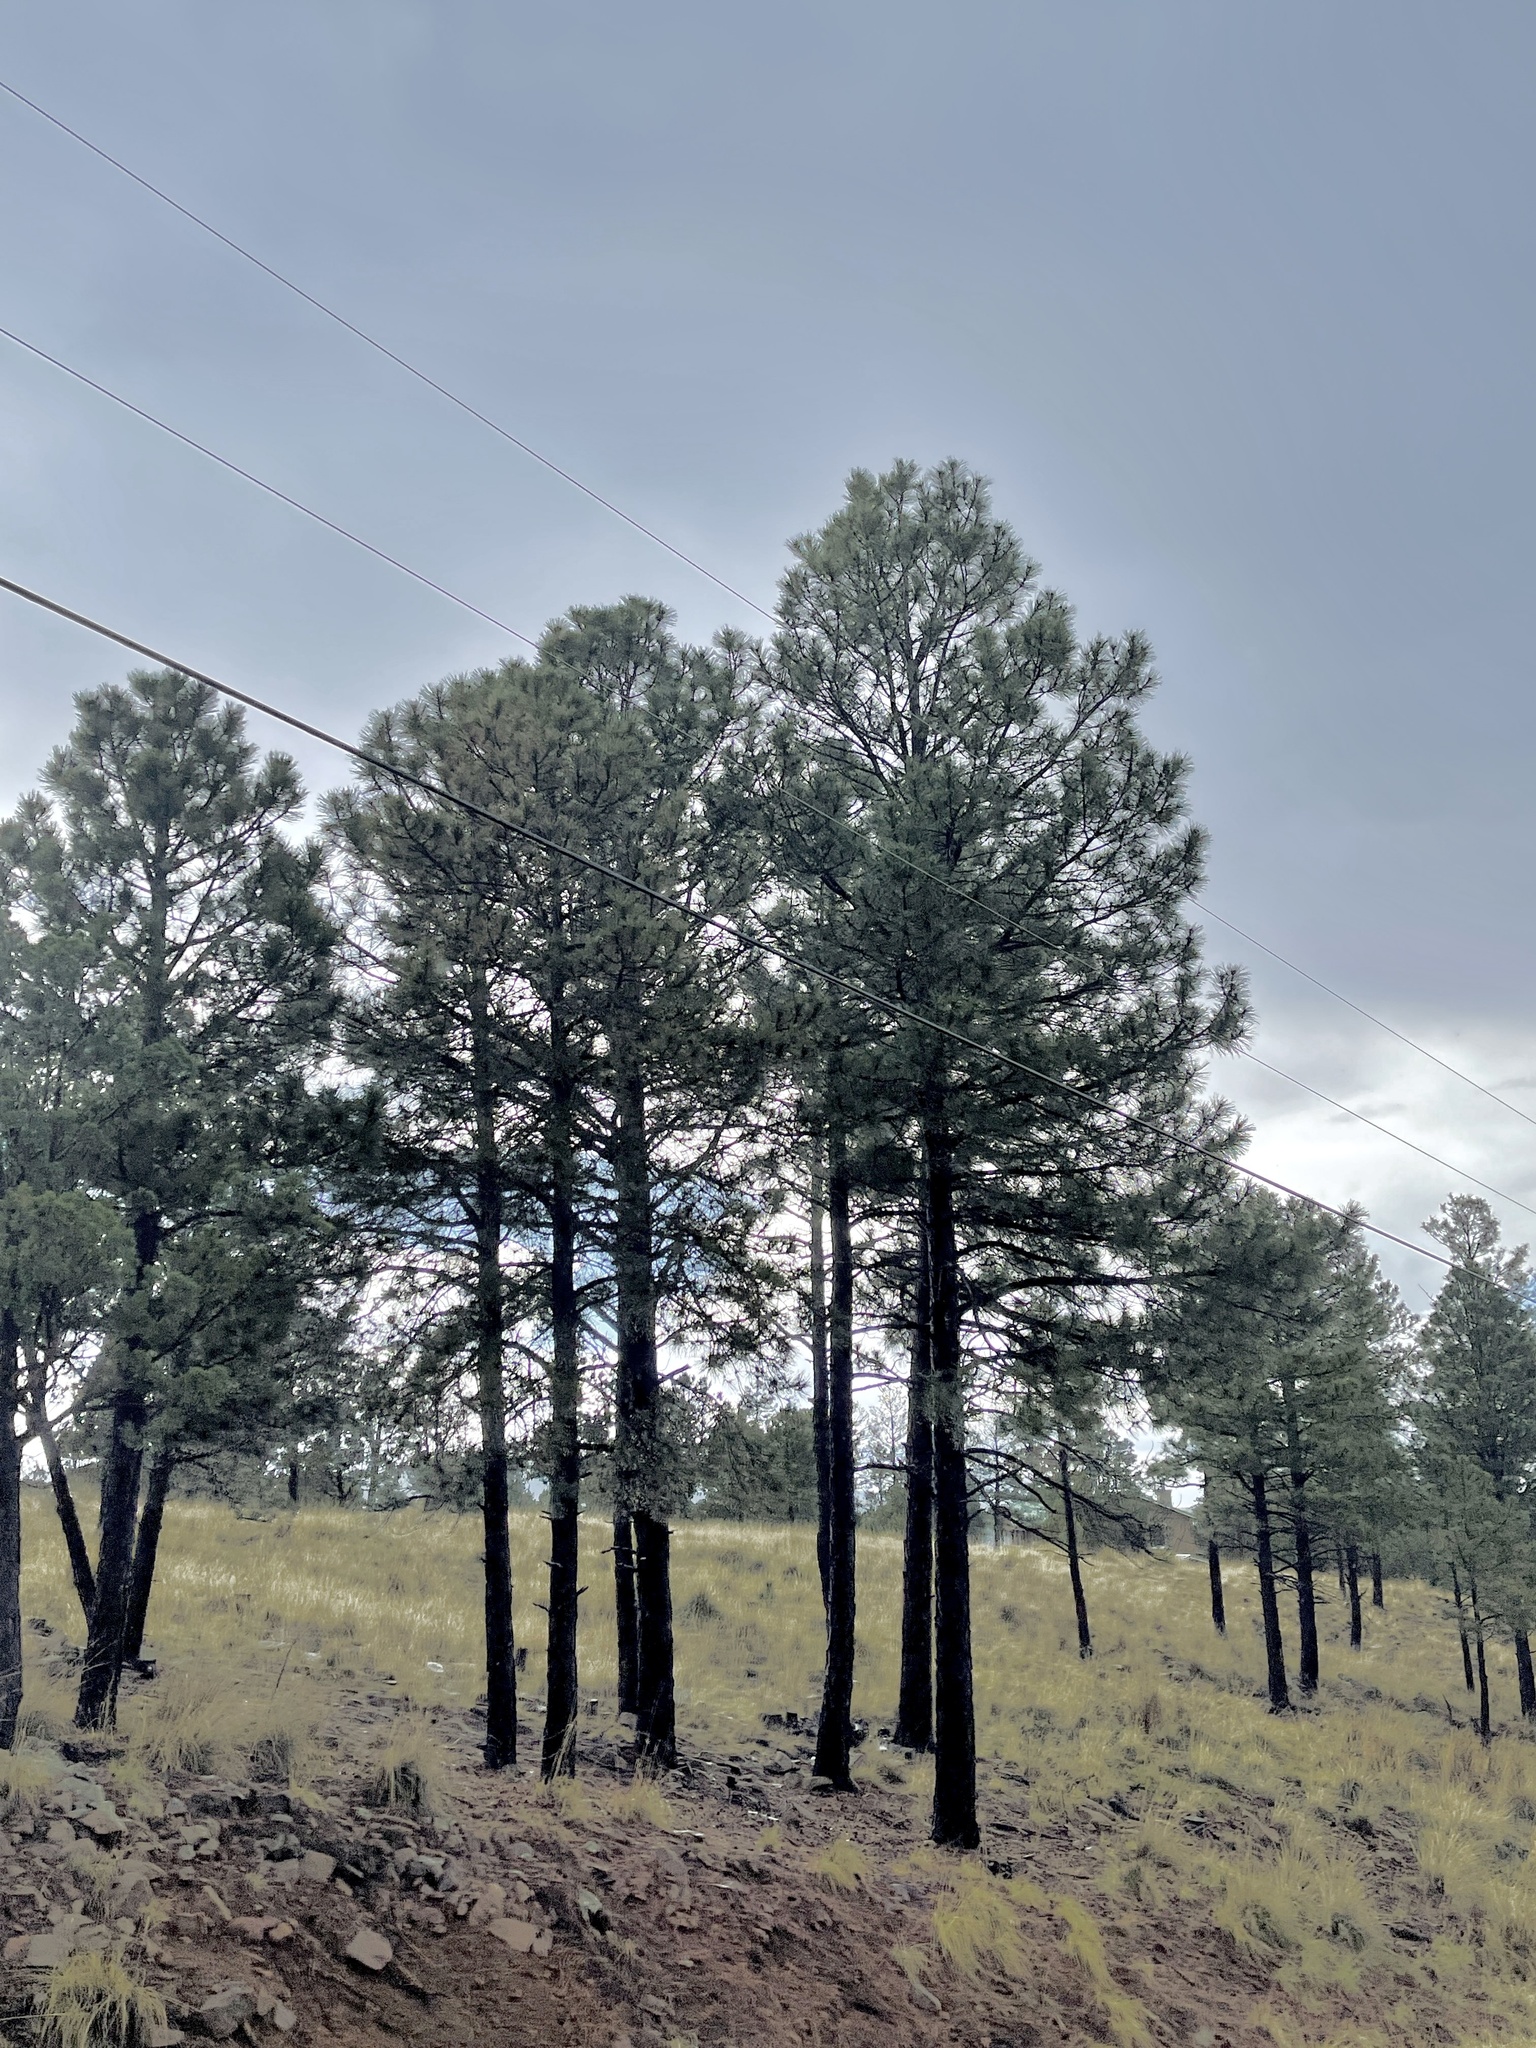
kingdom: Plantae
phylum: Tracheophyta
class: Pinopsida
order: Pinales
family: Pinaceae
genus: Pinus
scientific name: Pinus ponderosa
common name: Western yellow-pine
